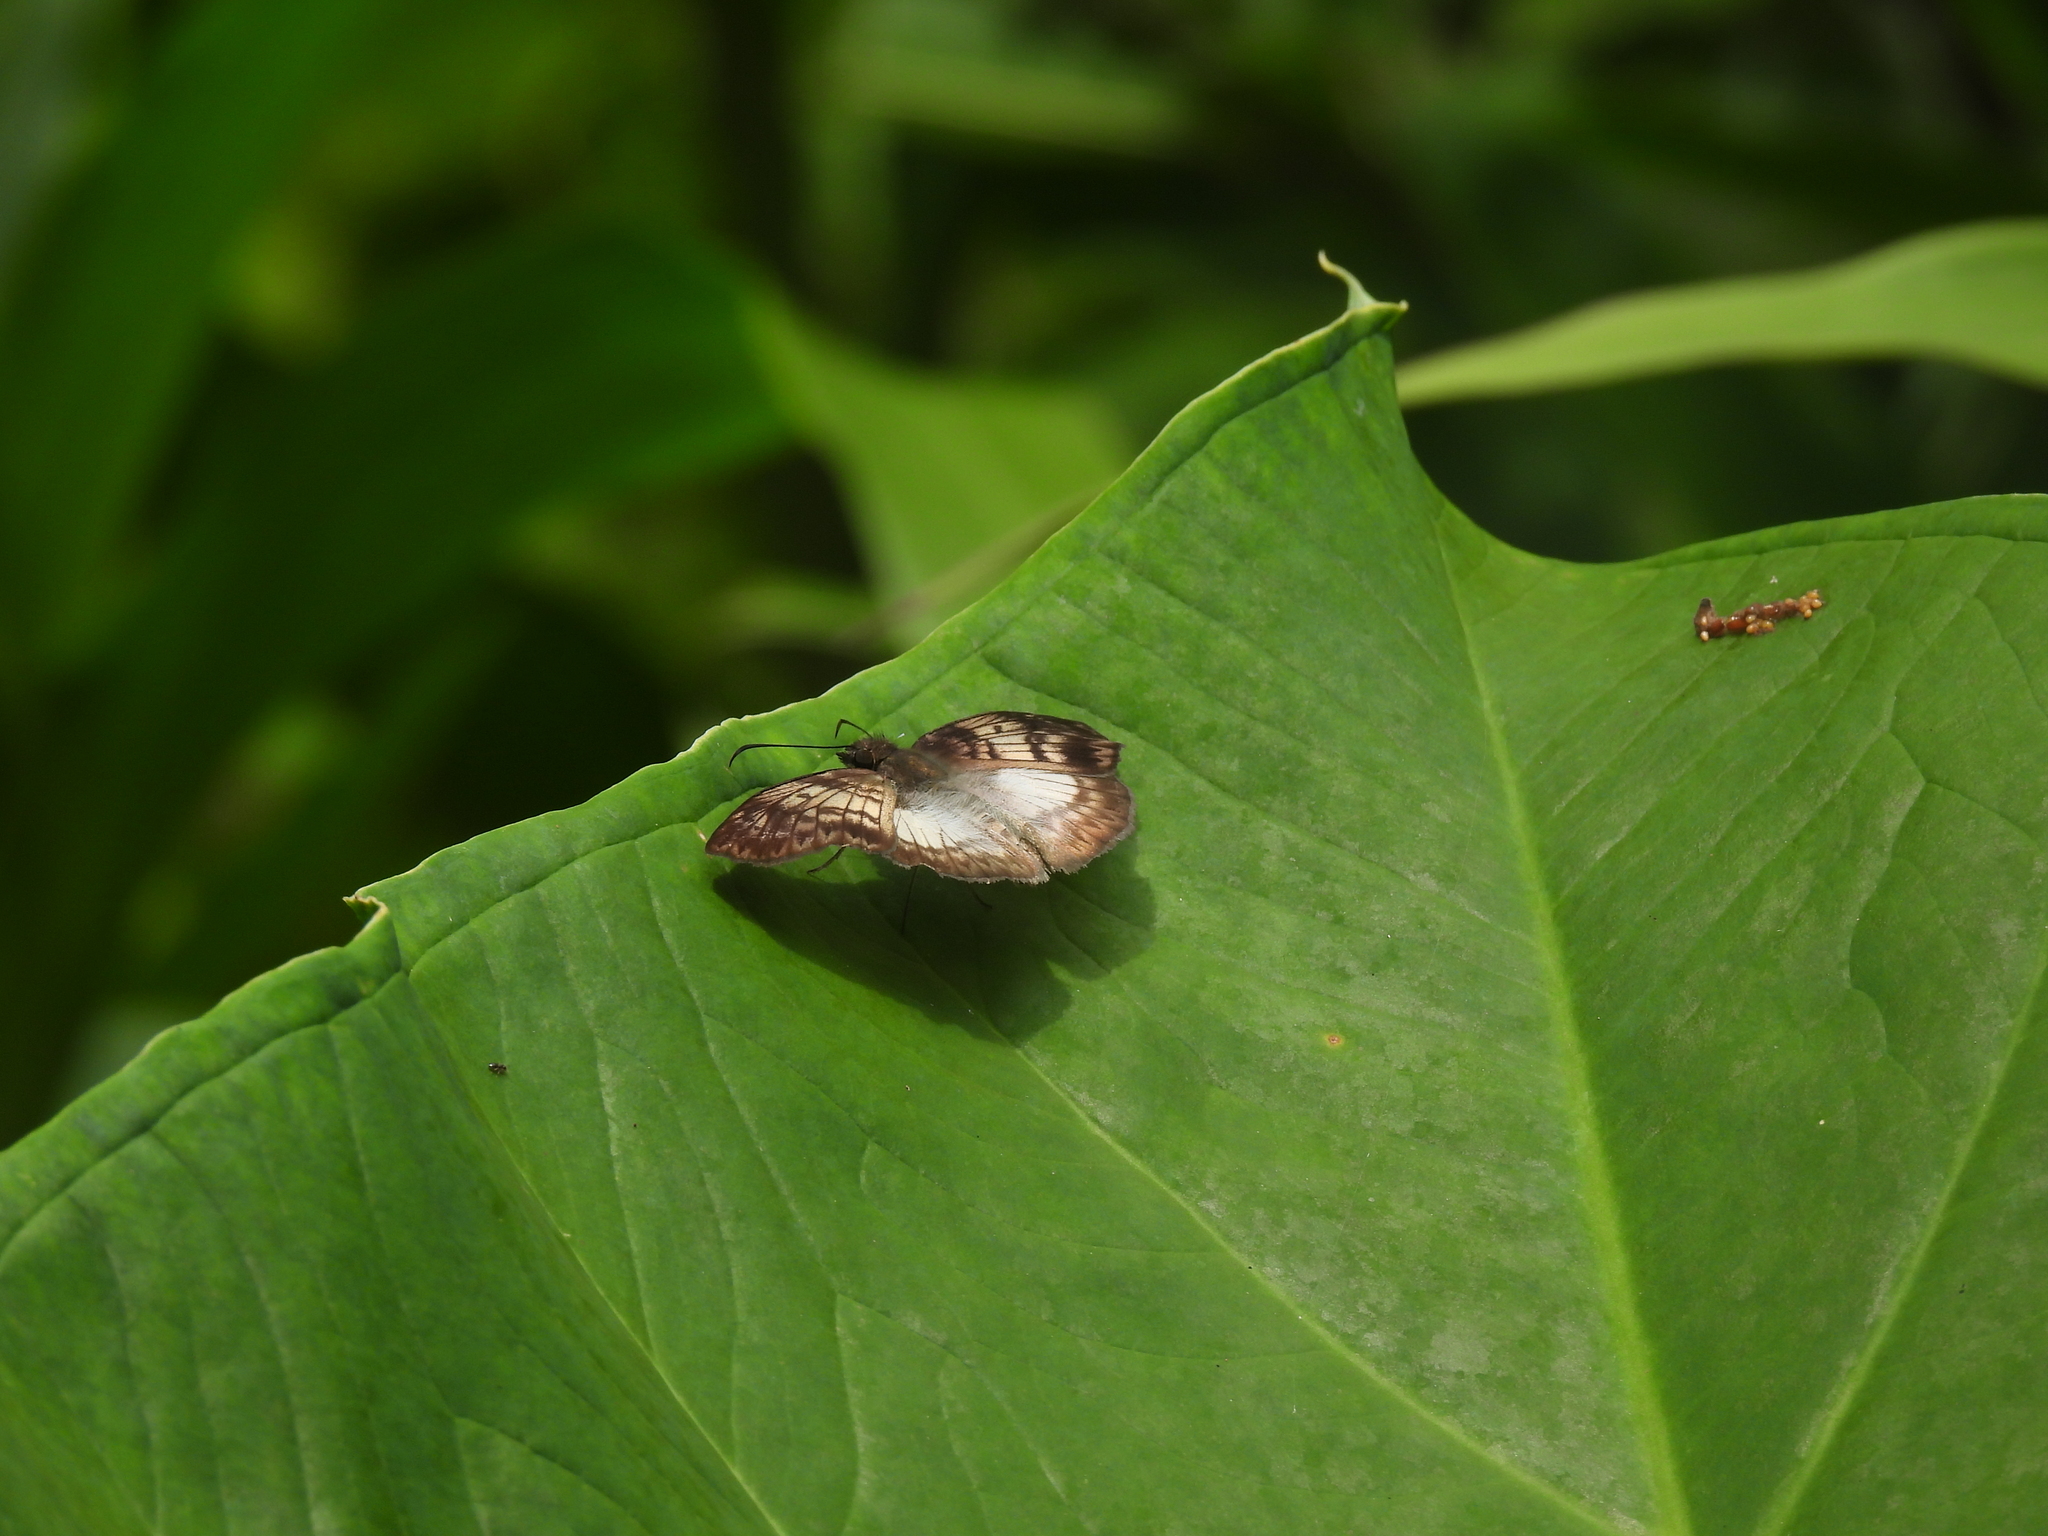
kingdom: Animalia
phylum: Arthropoda
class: Insecta
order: Lepidoptera
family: Hesperiidae
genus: Mylon
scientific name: Mylon maimon
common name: Common mylon
